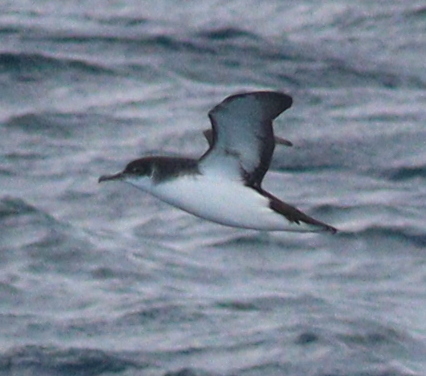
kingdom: Animalia
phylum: Chordata
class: Aves
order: Procellariiformes
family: Procellariidae
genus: Puffinus
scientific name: Puffinus puffinus
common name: Manx shearwater
